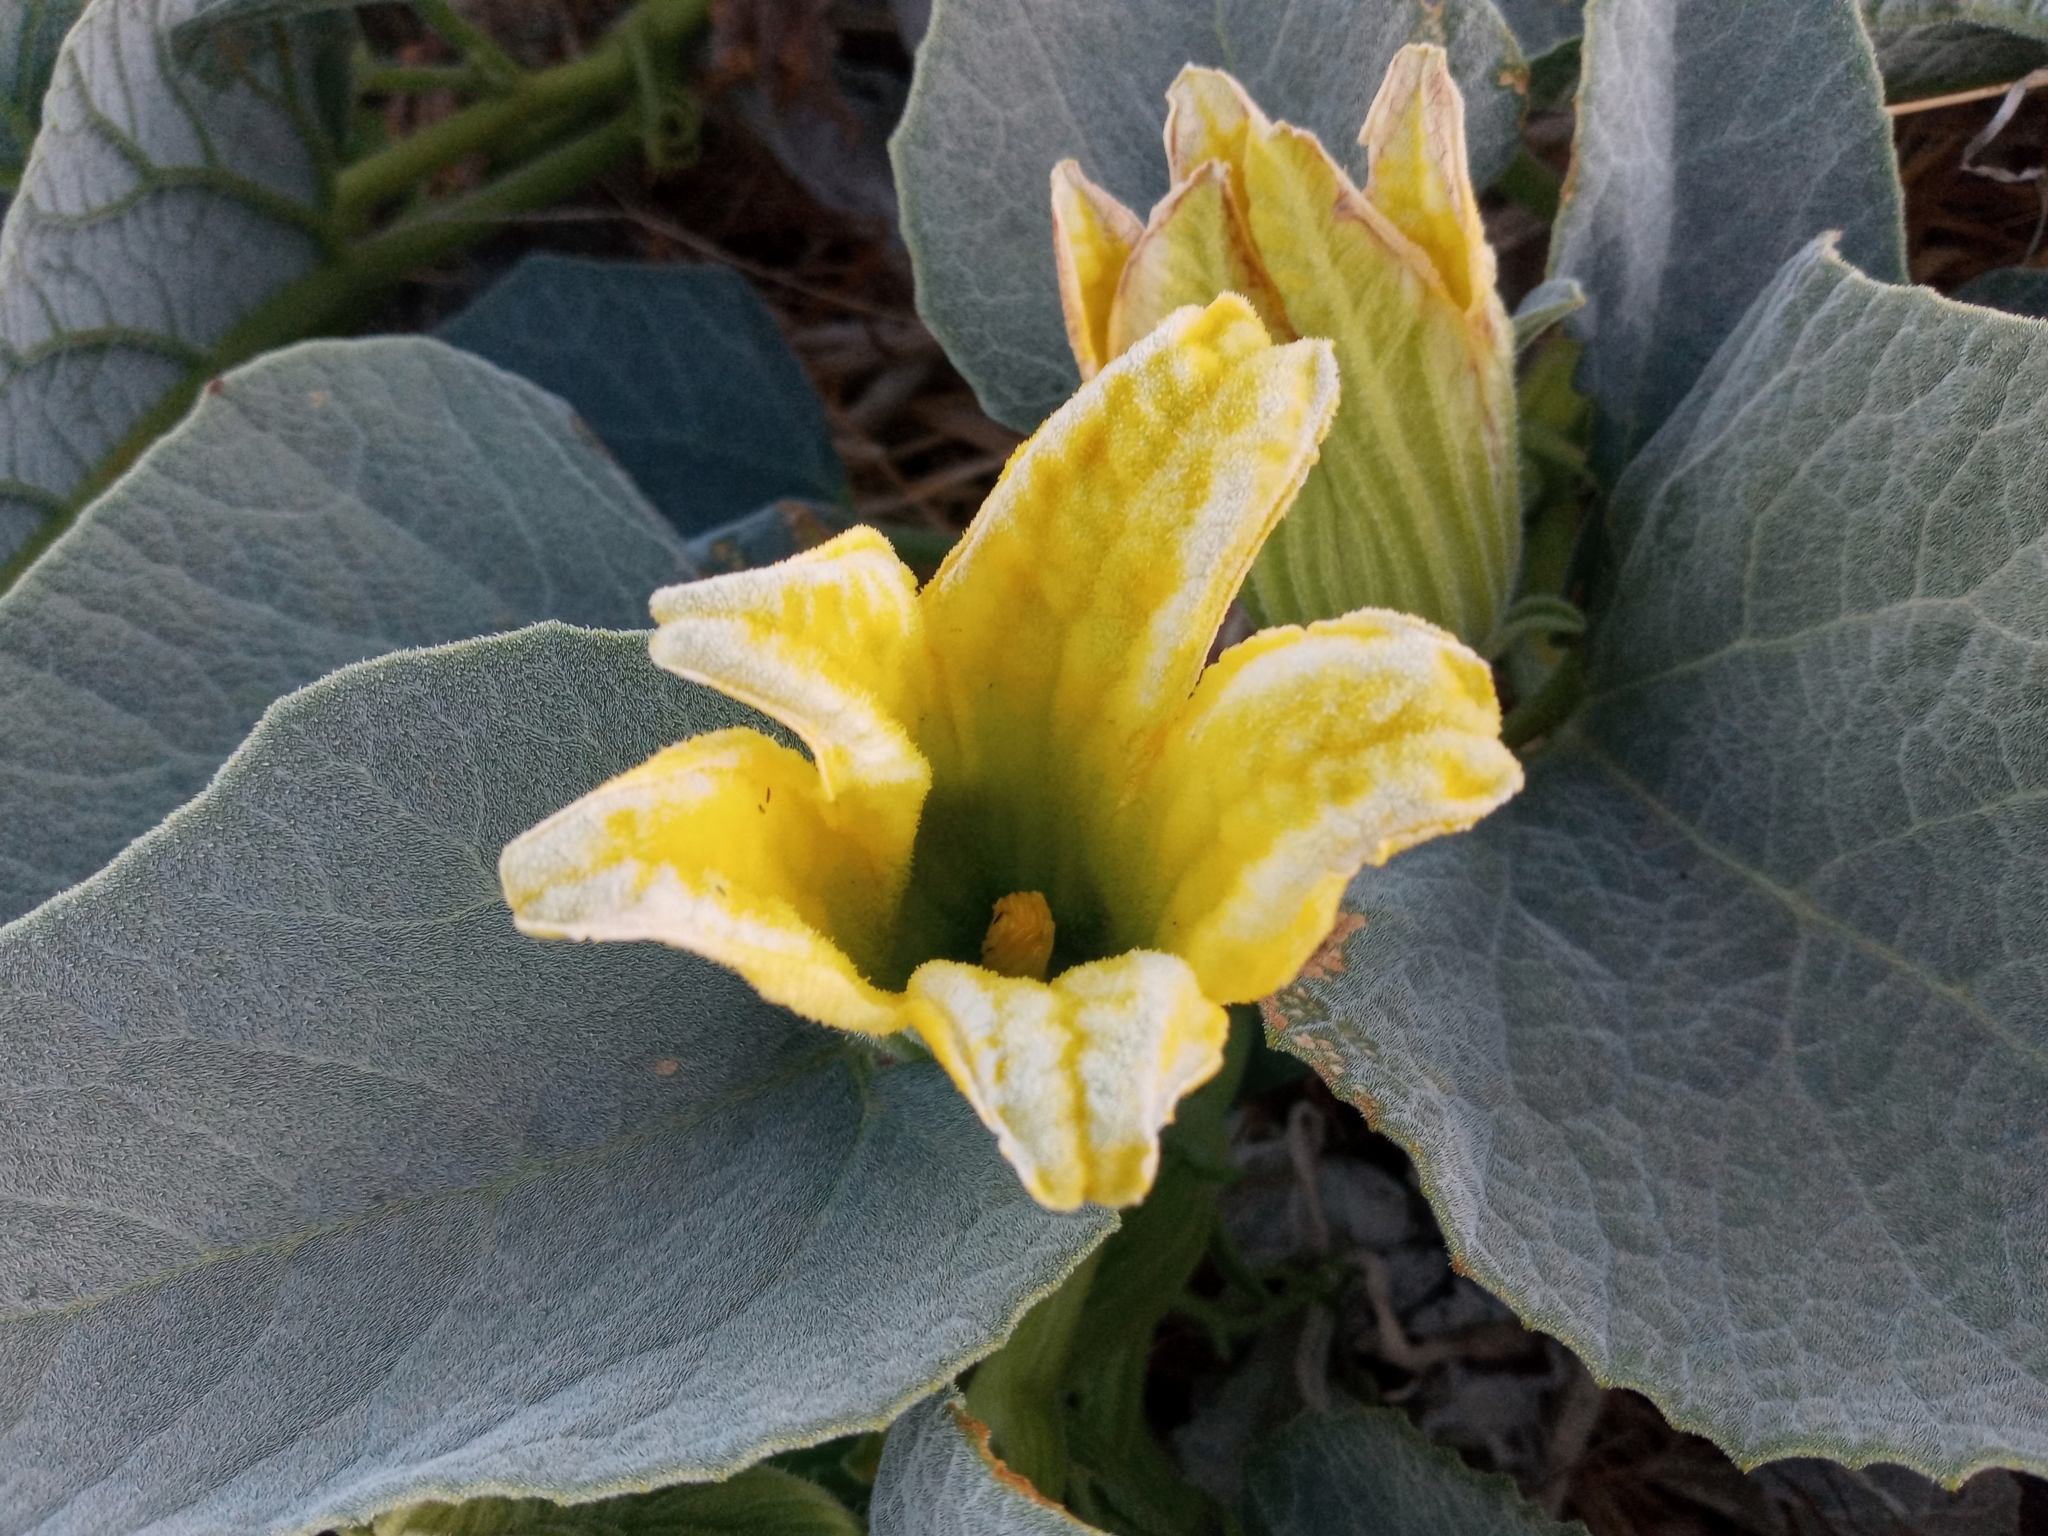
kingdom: Plantae
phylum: Tracheophyta
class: Magnoliopsida
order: Cucurbitales
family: Cucurbitaceae
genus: Cucurbita
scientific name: Cucurbita foetidissima
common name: Buffalo gourd
